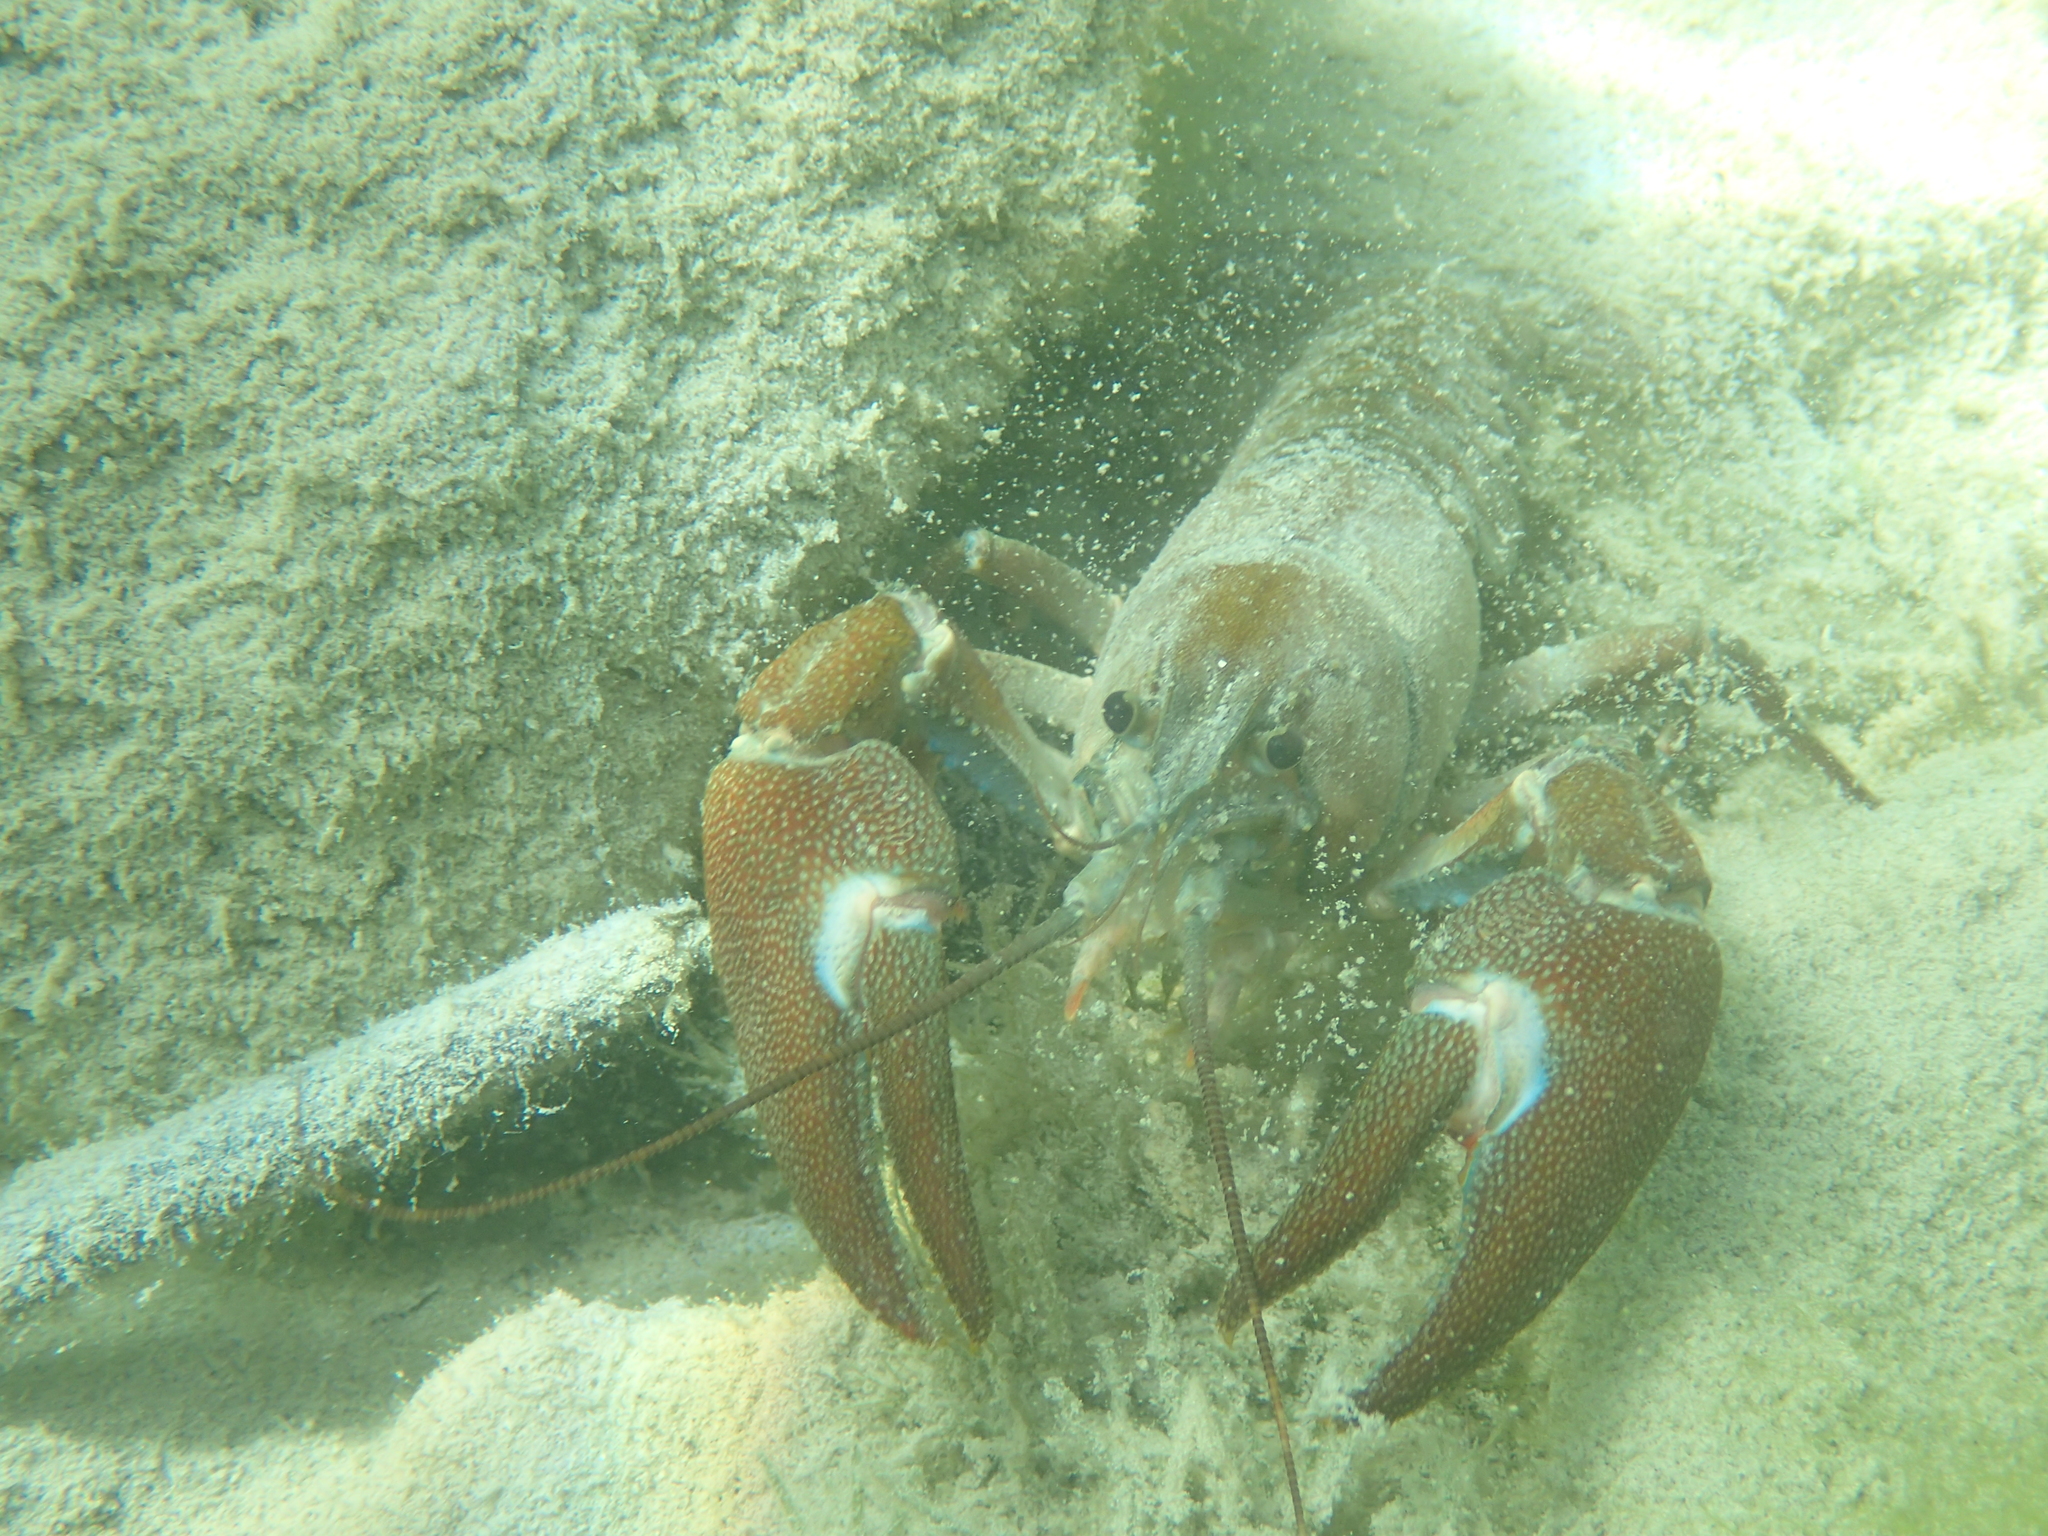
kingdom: Animalia
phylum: Arthropoda
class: Malacostraca
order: Decapoda
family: Astacidae
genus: Pacifastacus
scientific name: Pacifastacus leniusculus
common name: Signal crayfish
